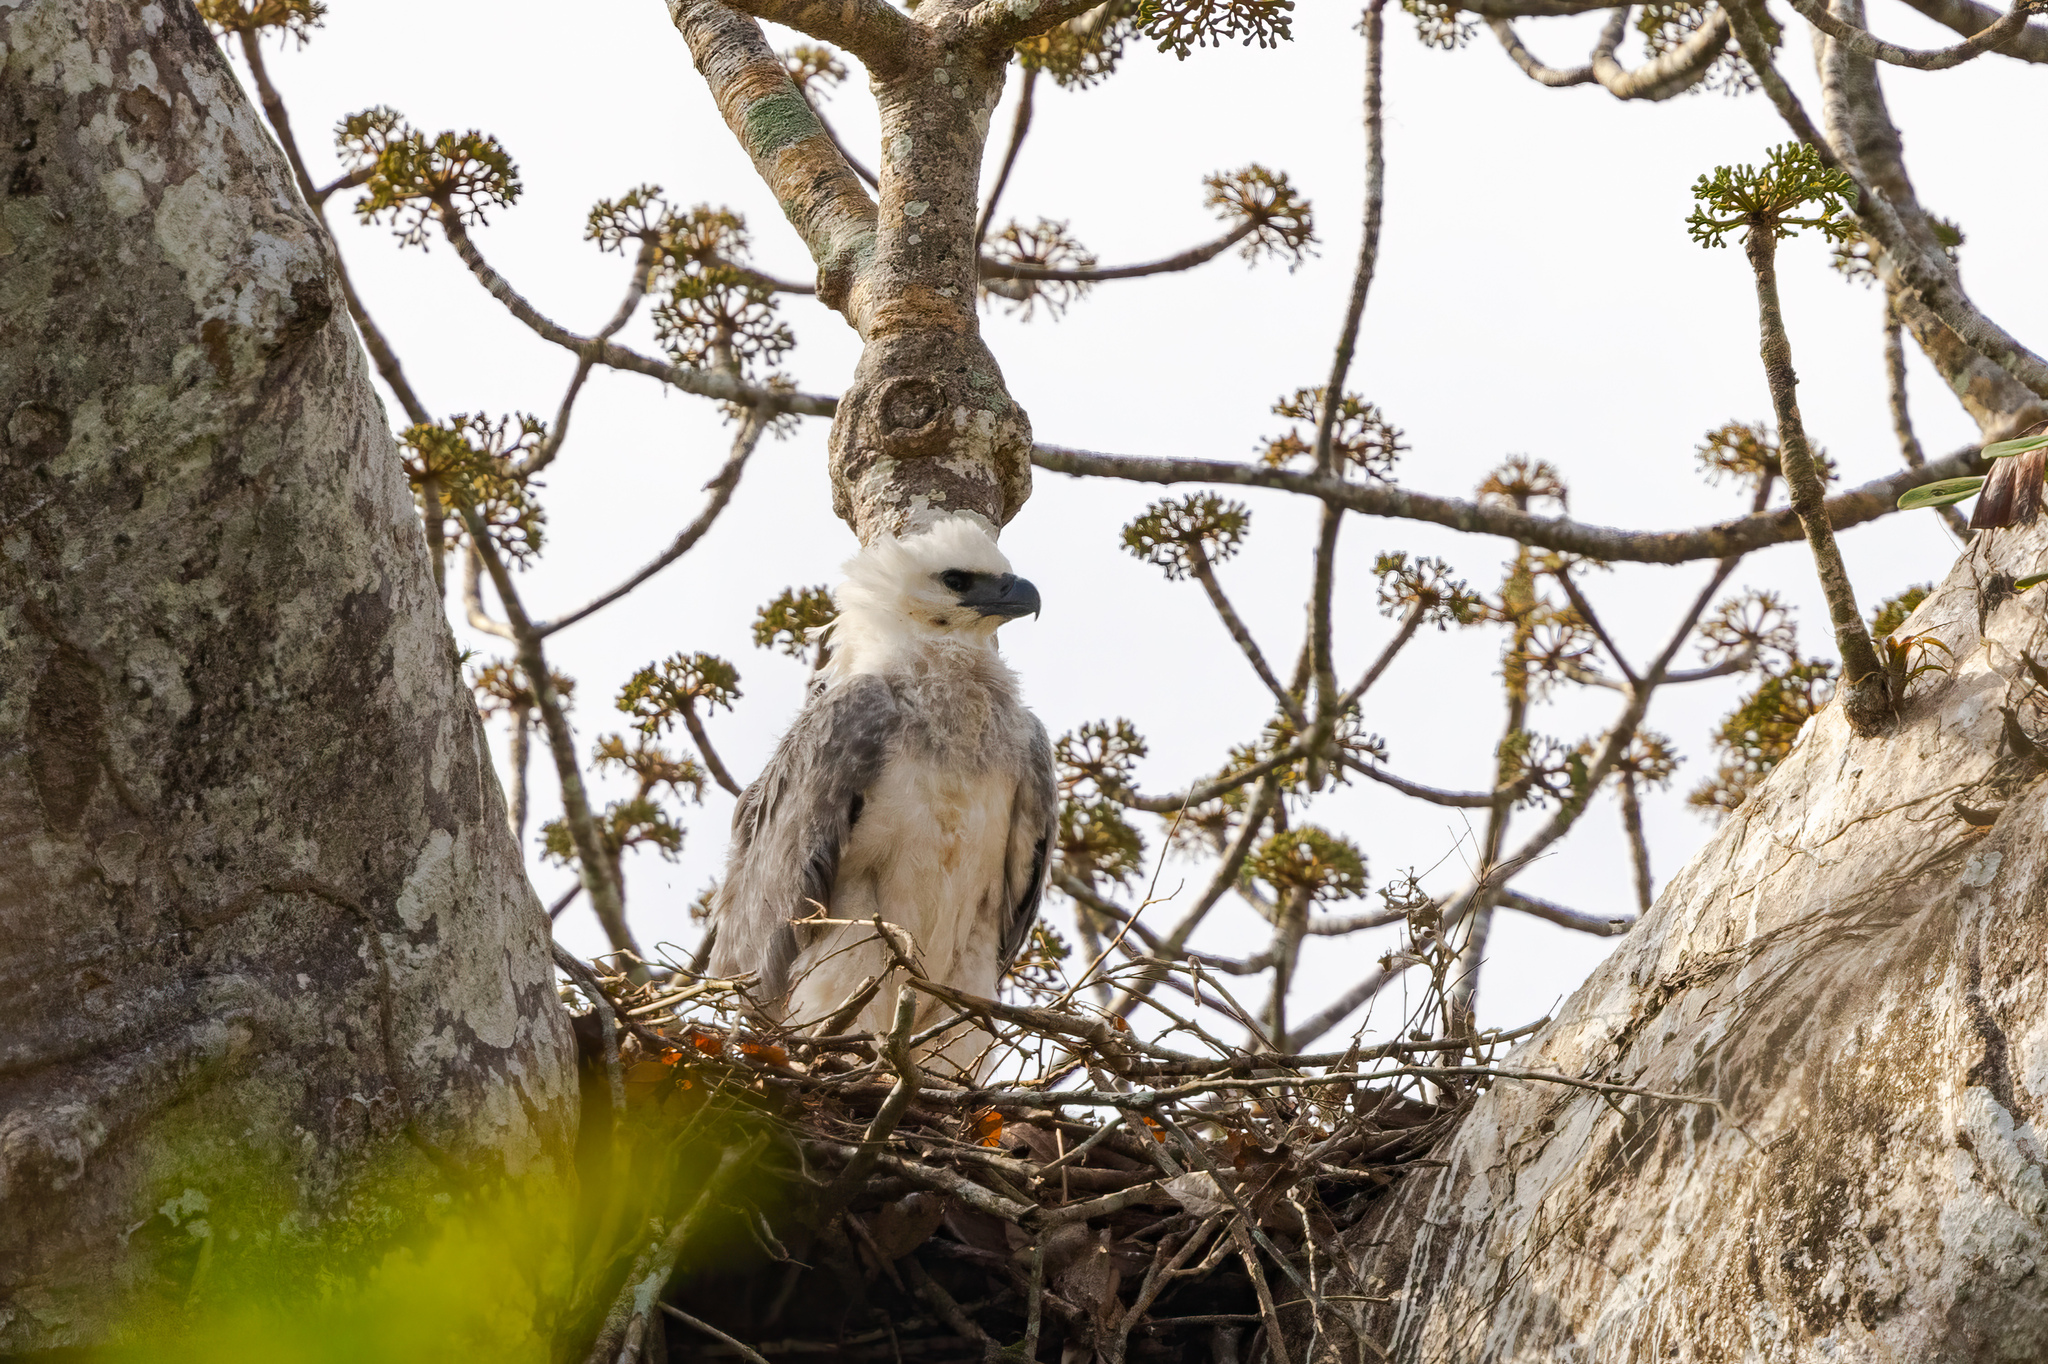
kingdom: Animalia
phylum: Chordata
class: Aves
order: Accipitriformes
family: Accipitridae
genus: Harpia
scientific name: Harpia harpyja
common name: Harpy eagle
